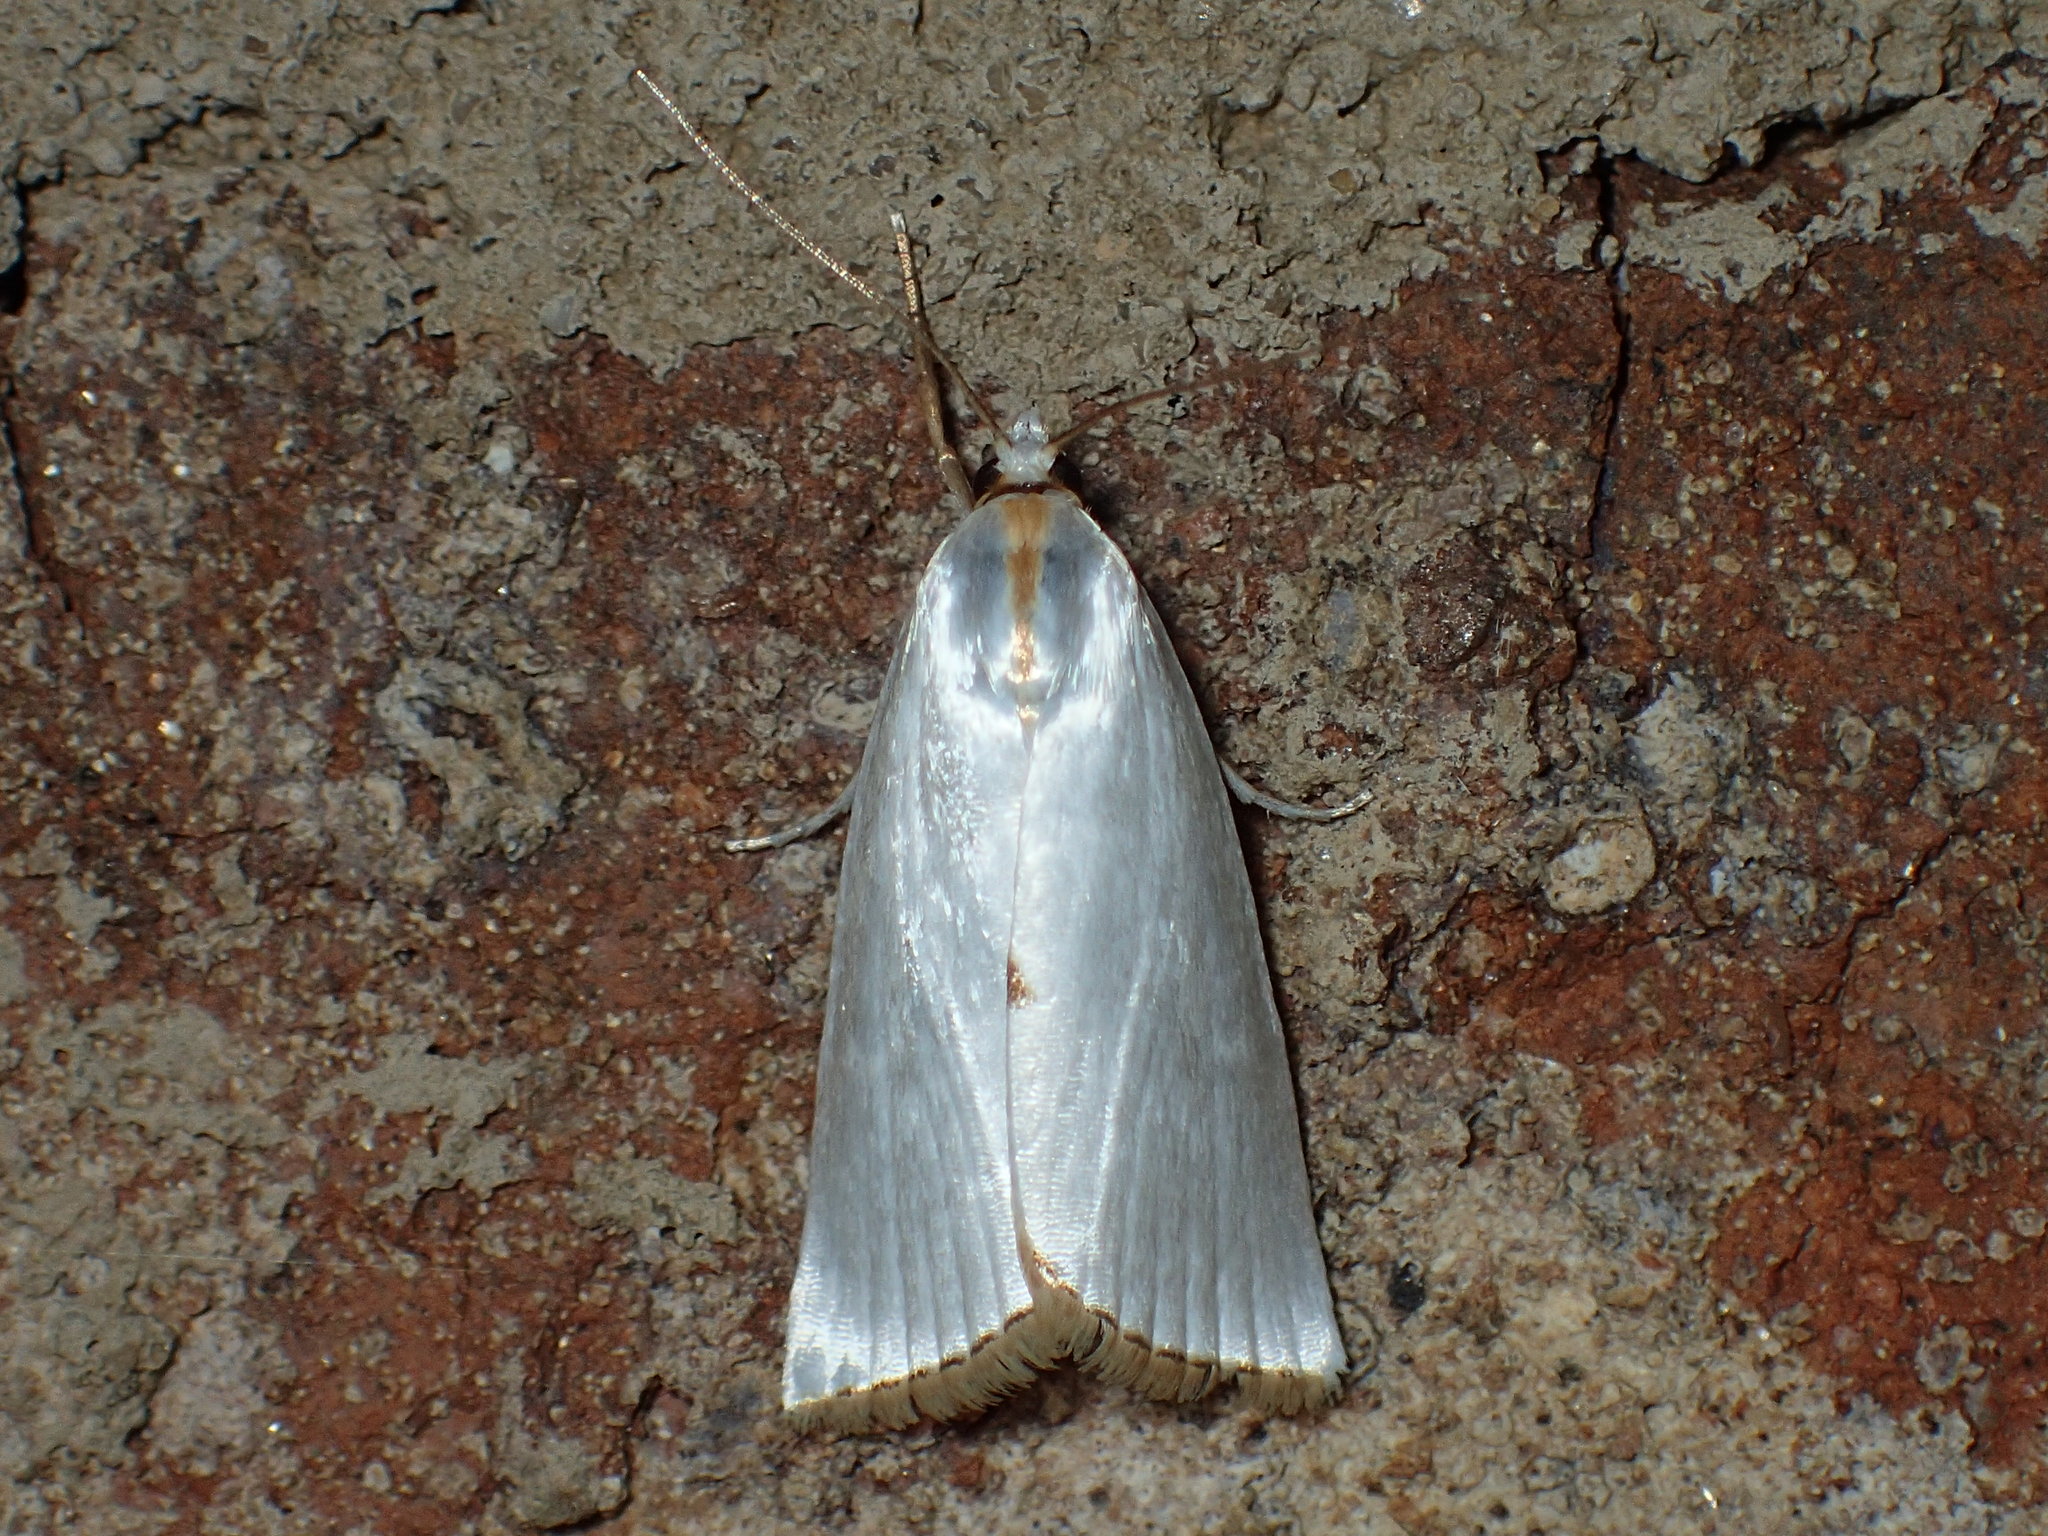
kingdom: Animalia
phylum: Arthropoda
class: Insecta
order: Lepidoptera
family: Crambidae
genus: Argyria
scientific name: Argyria nivalis
